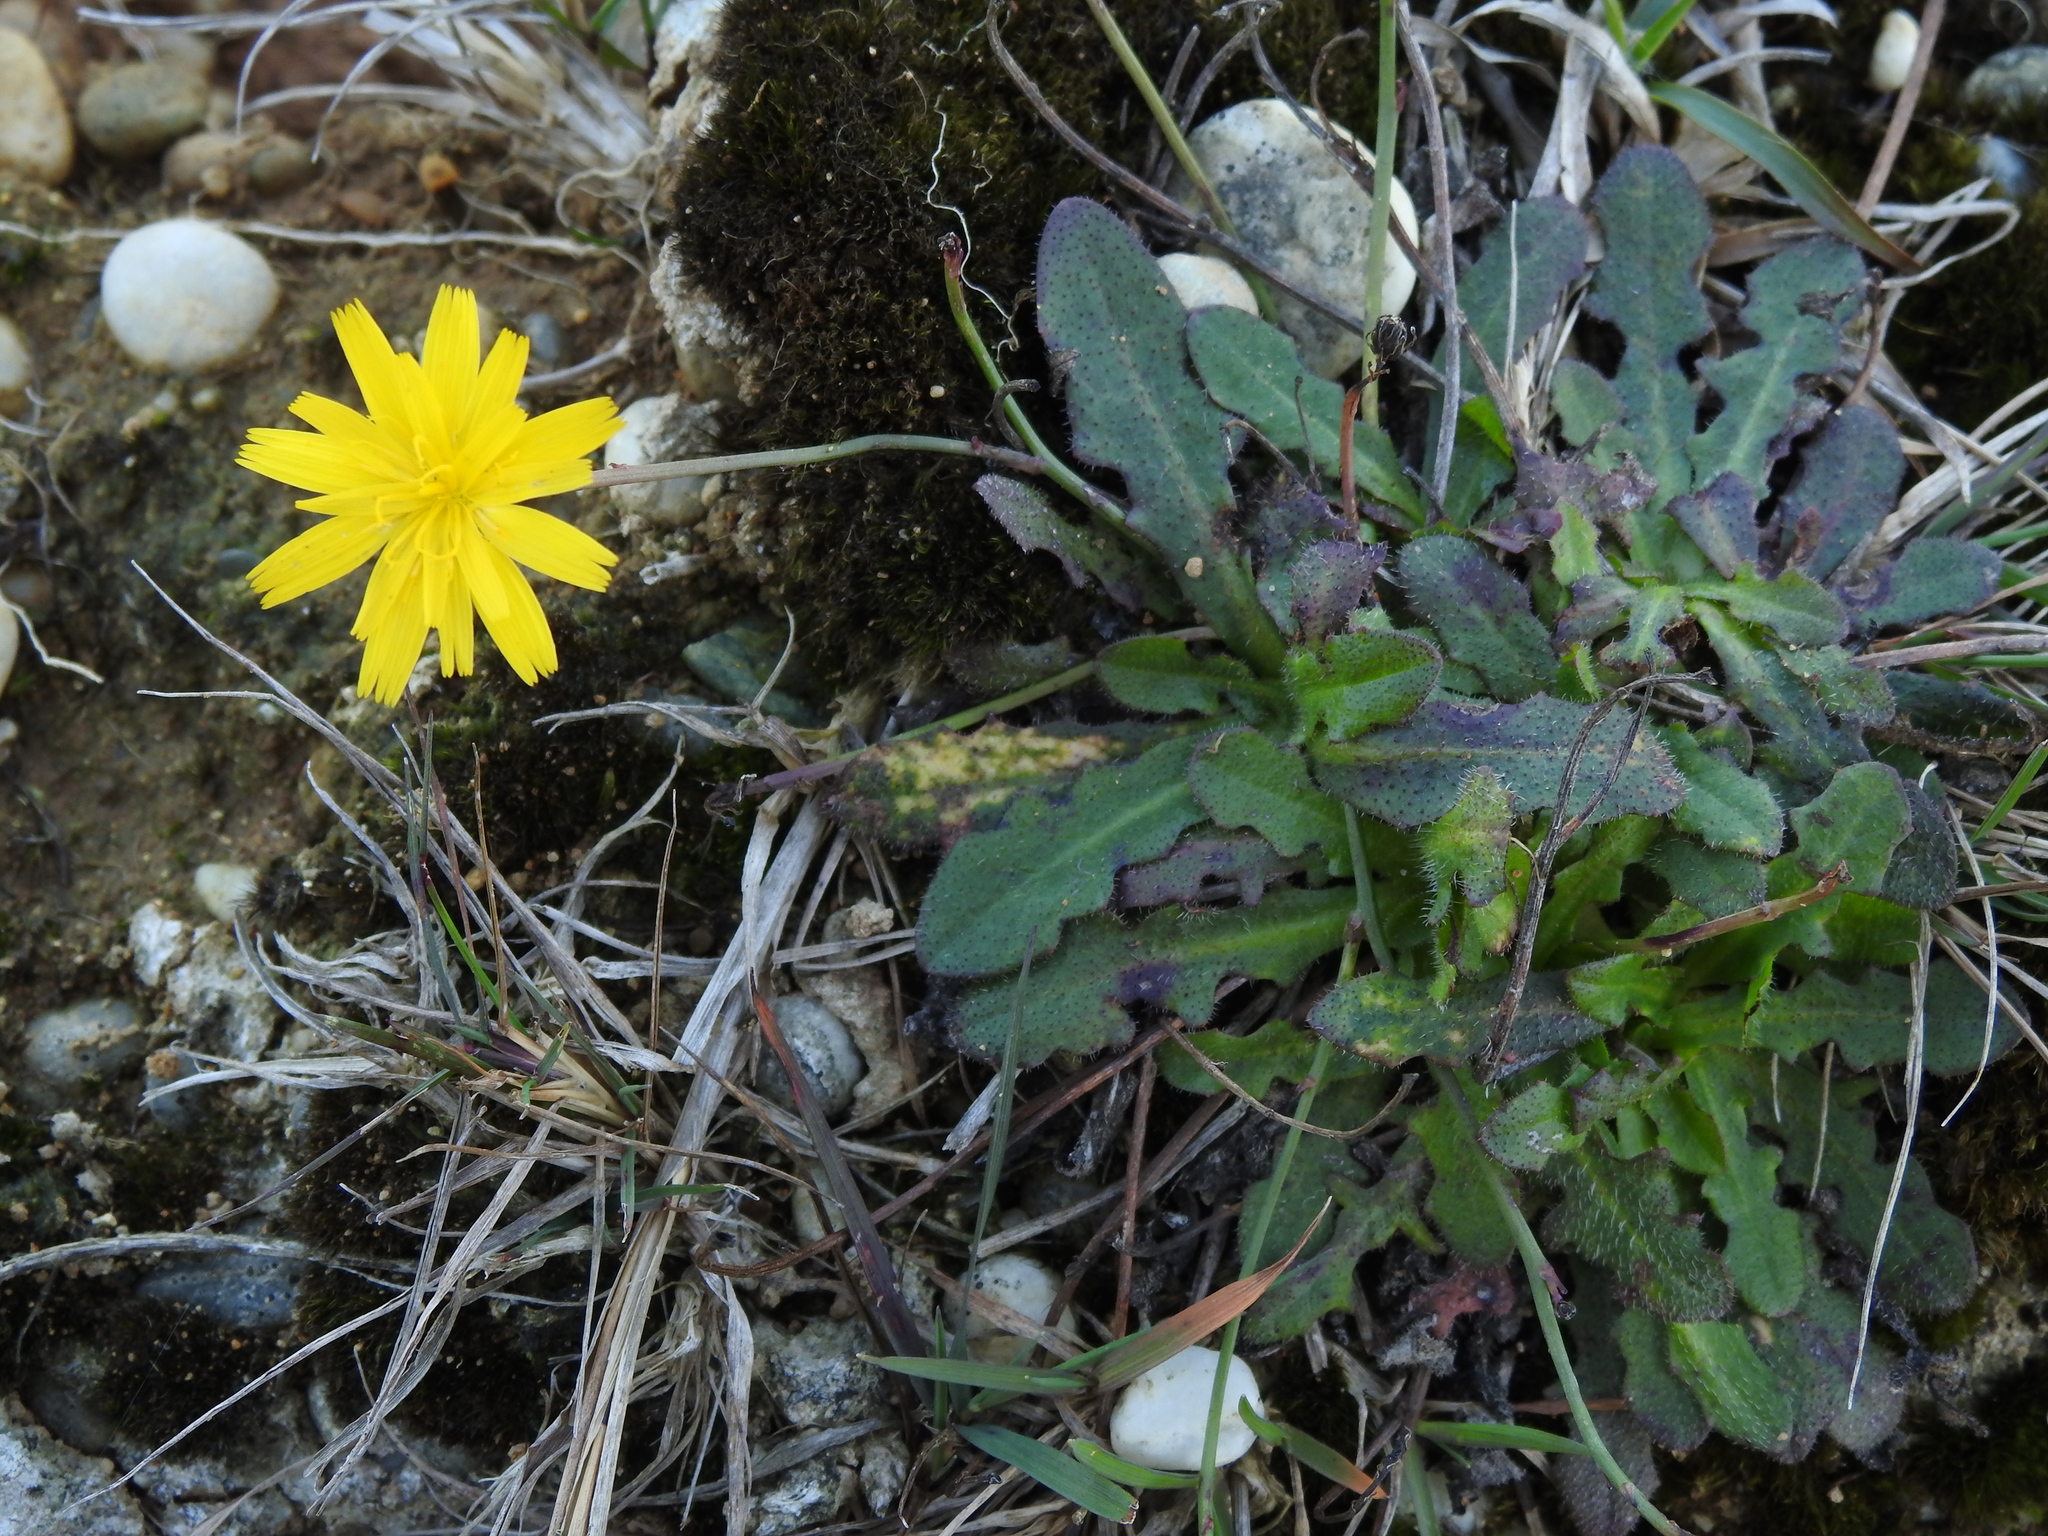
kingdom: Plantae
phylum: Tracheophyta
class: Magnoliopsida
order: Asterales
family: Asteraceae
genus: Hypochaeris
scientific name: Hypochaeris radicata
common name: Flatweed
